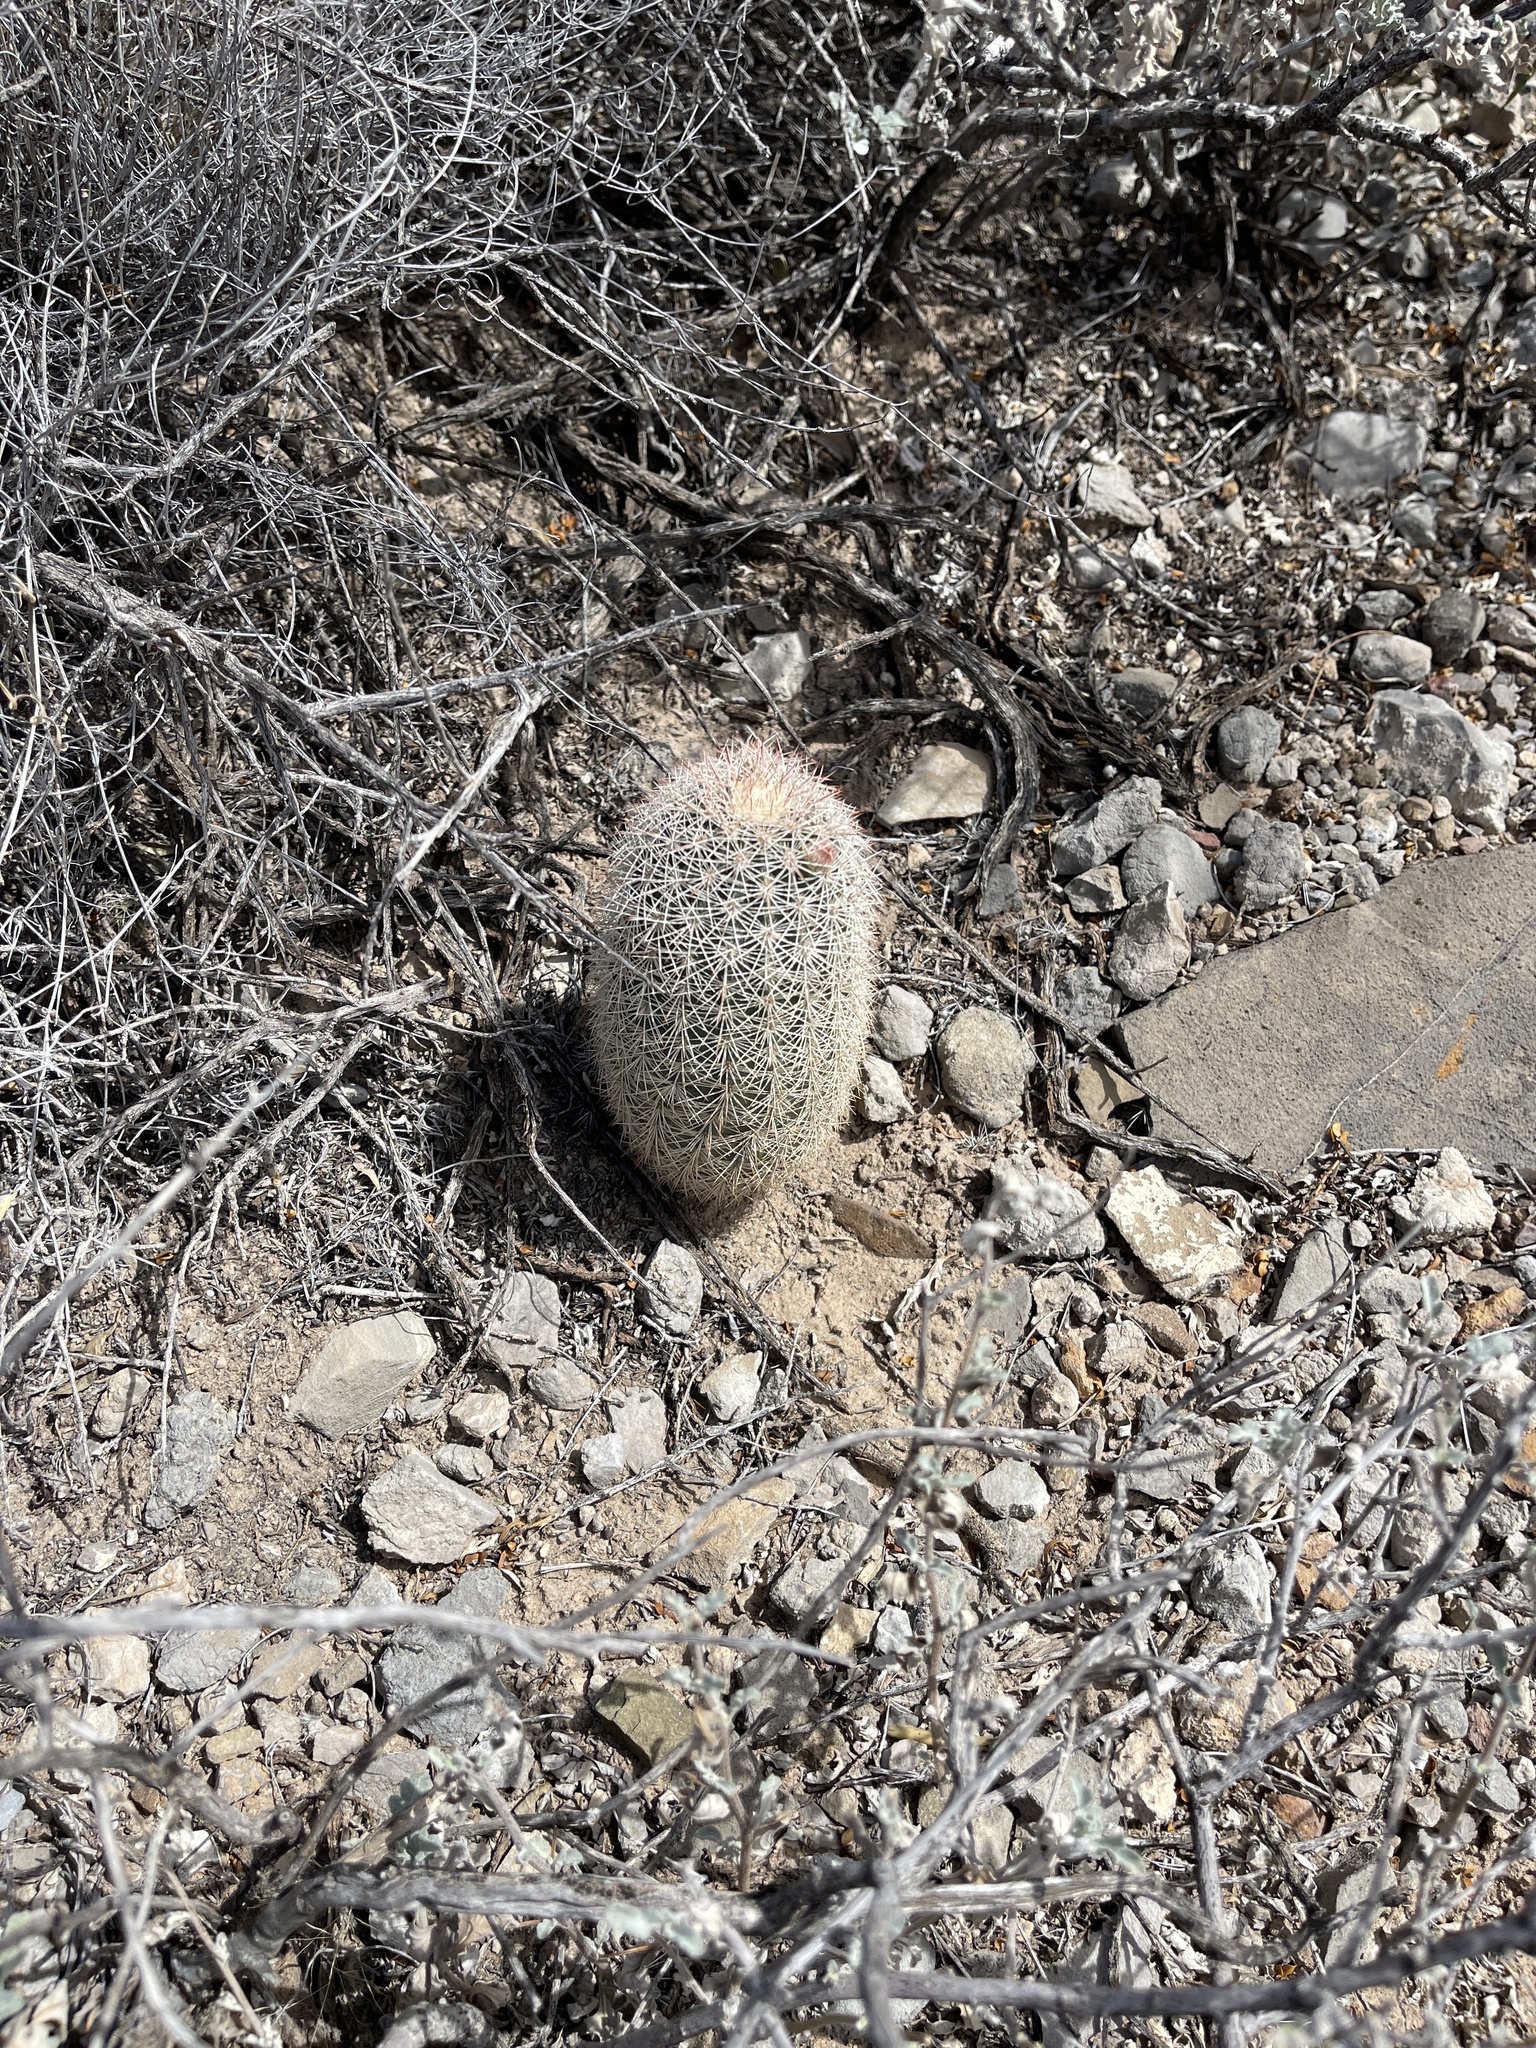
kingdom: Plantae
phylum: Tracheophyta
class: Magnoliopsida
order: Caryophyllales
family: Cactaceae
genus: Echinocereus
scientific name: Echinocereus dasyacanthus
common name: Spiny hedgehog cactus
